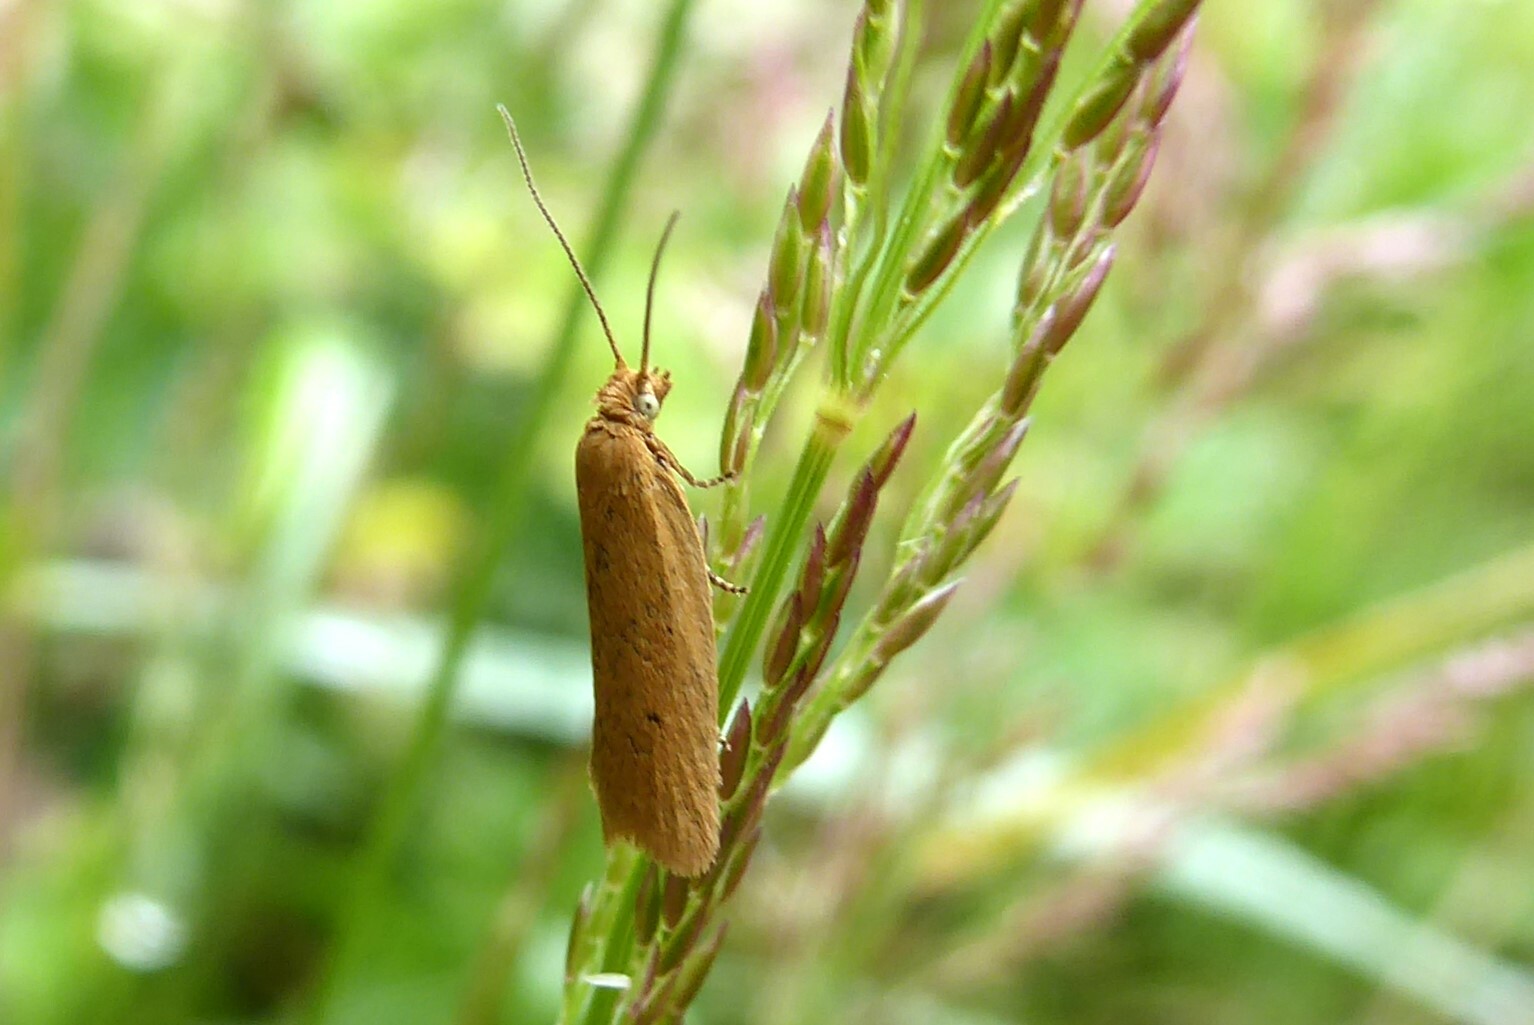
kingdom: Animalia
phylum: Arthropoda
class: Insecta
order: Lepidoptera
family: Tortricidae
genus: Epichorista
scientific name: Epichorista siriana
